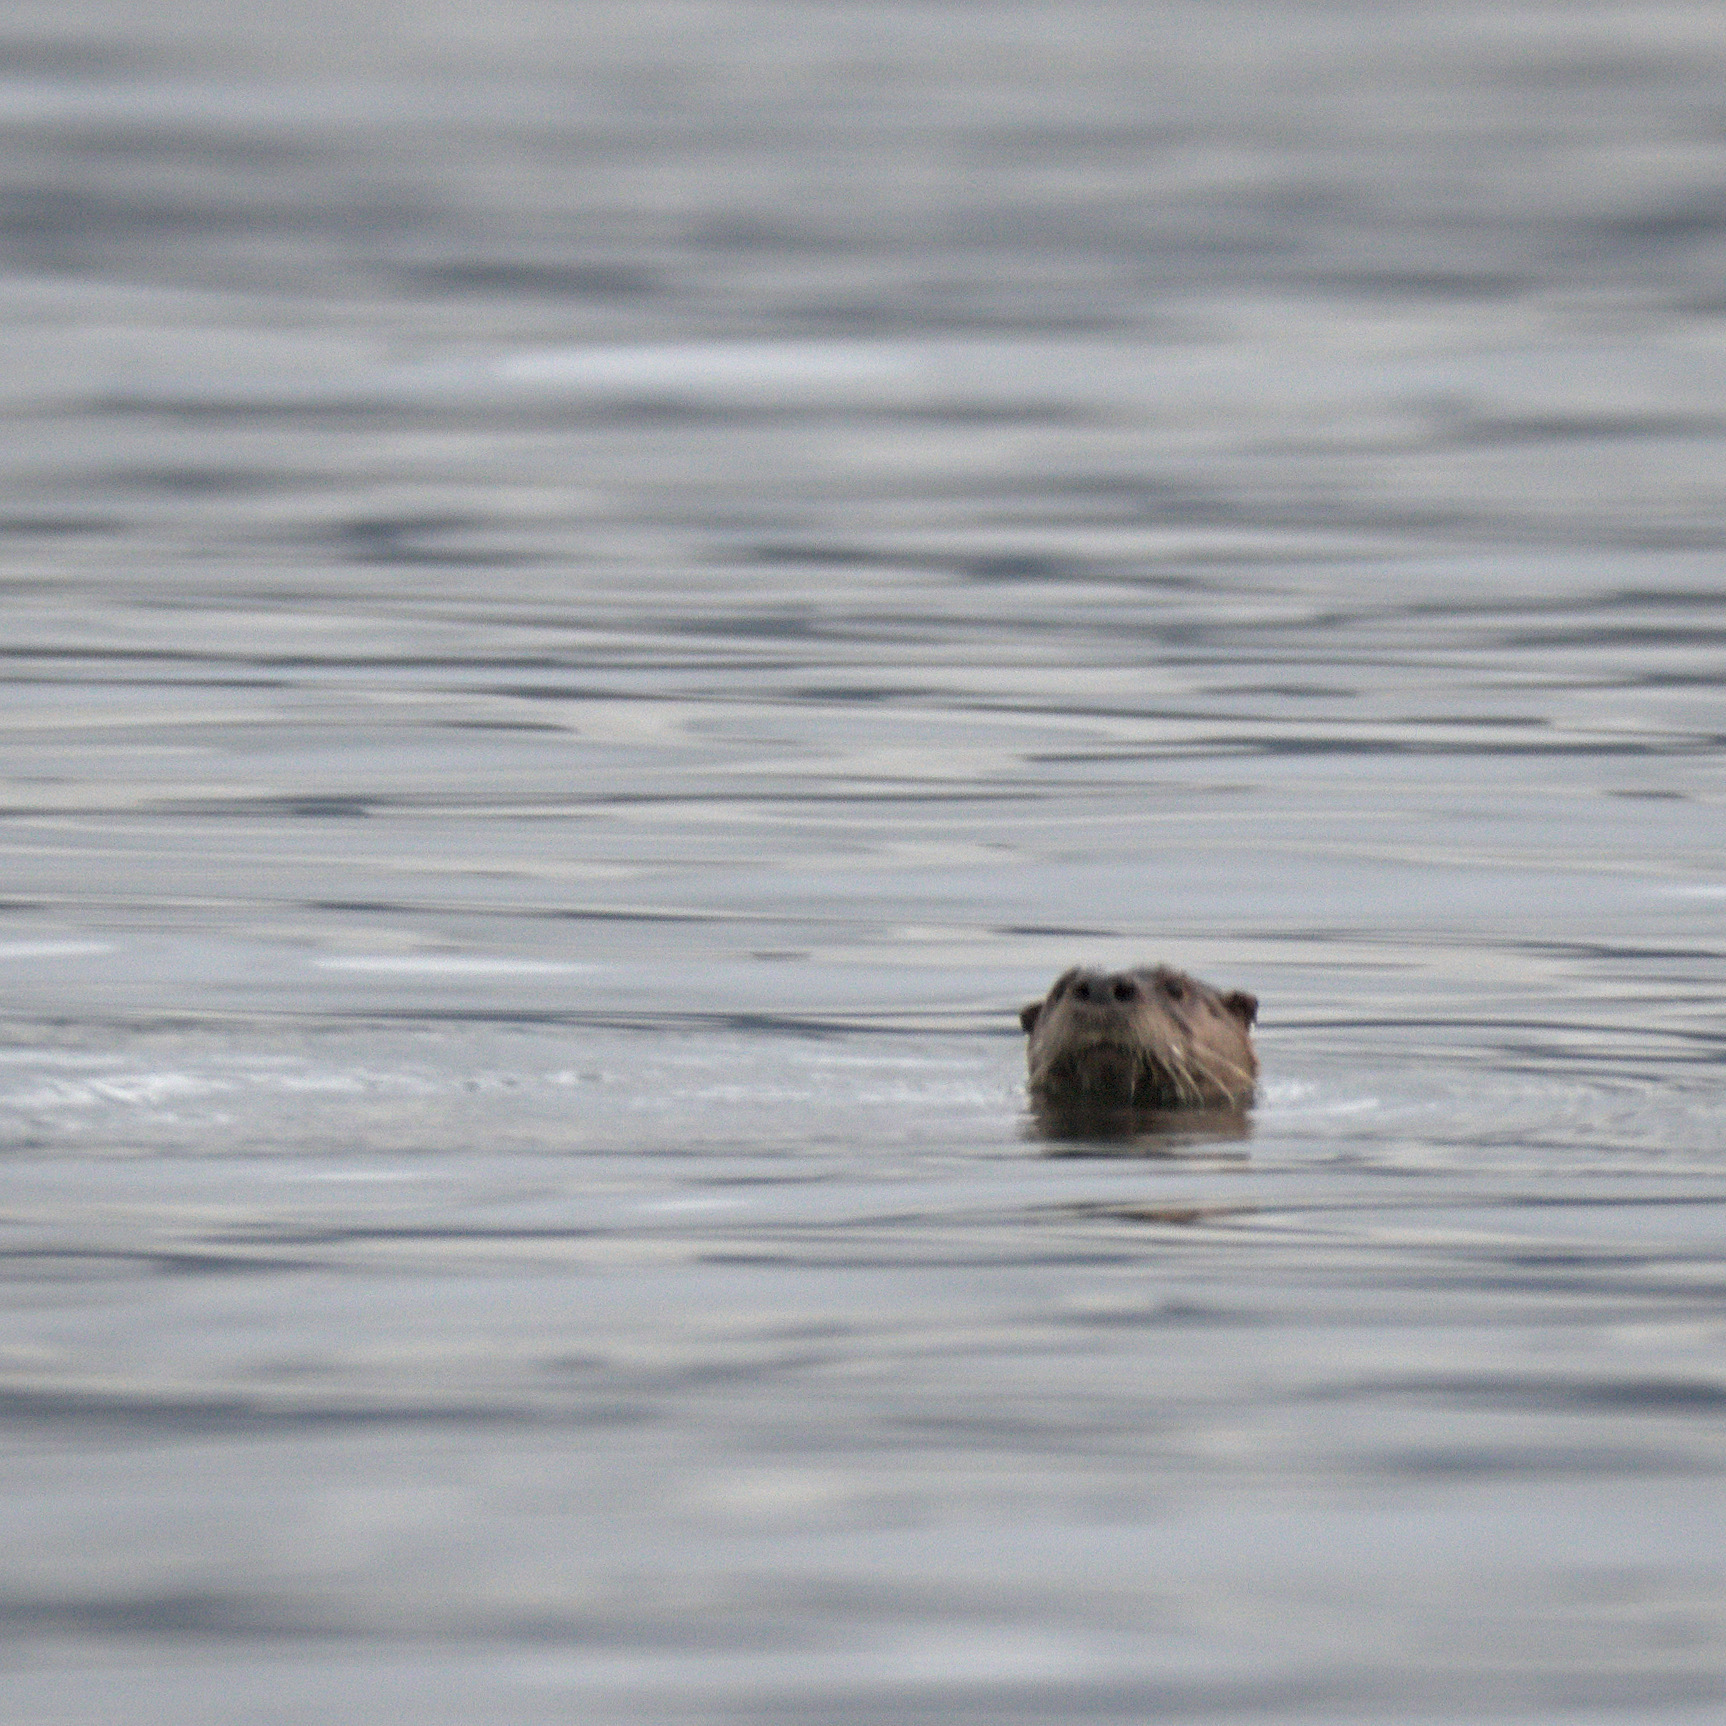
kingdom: Animalia
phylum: Chordata
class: Mammalia
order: Carnivora
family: Mustelidae
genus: Lontra
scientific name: Lontra canadensis
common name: North american river otter
